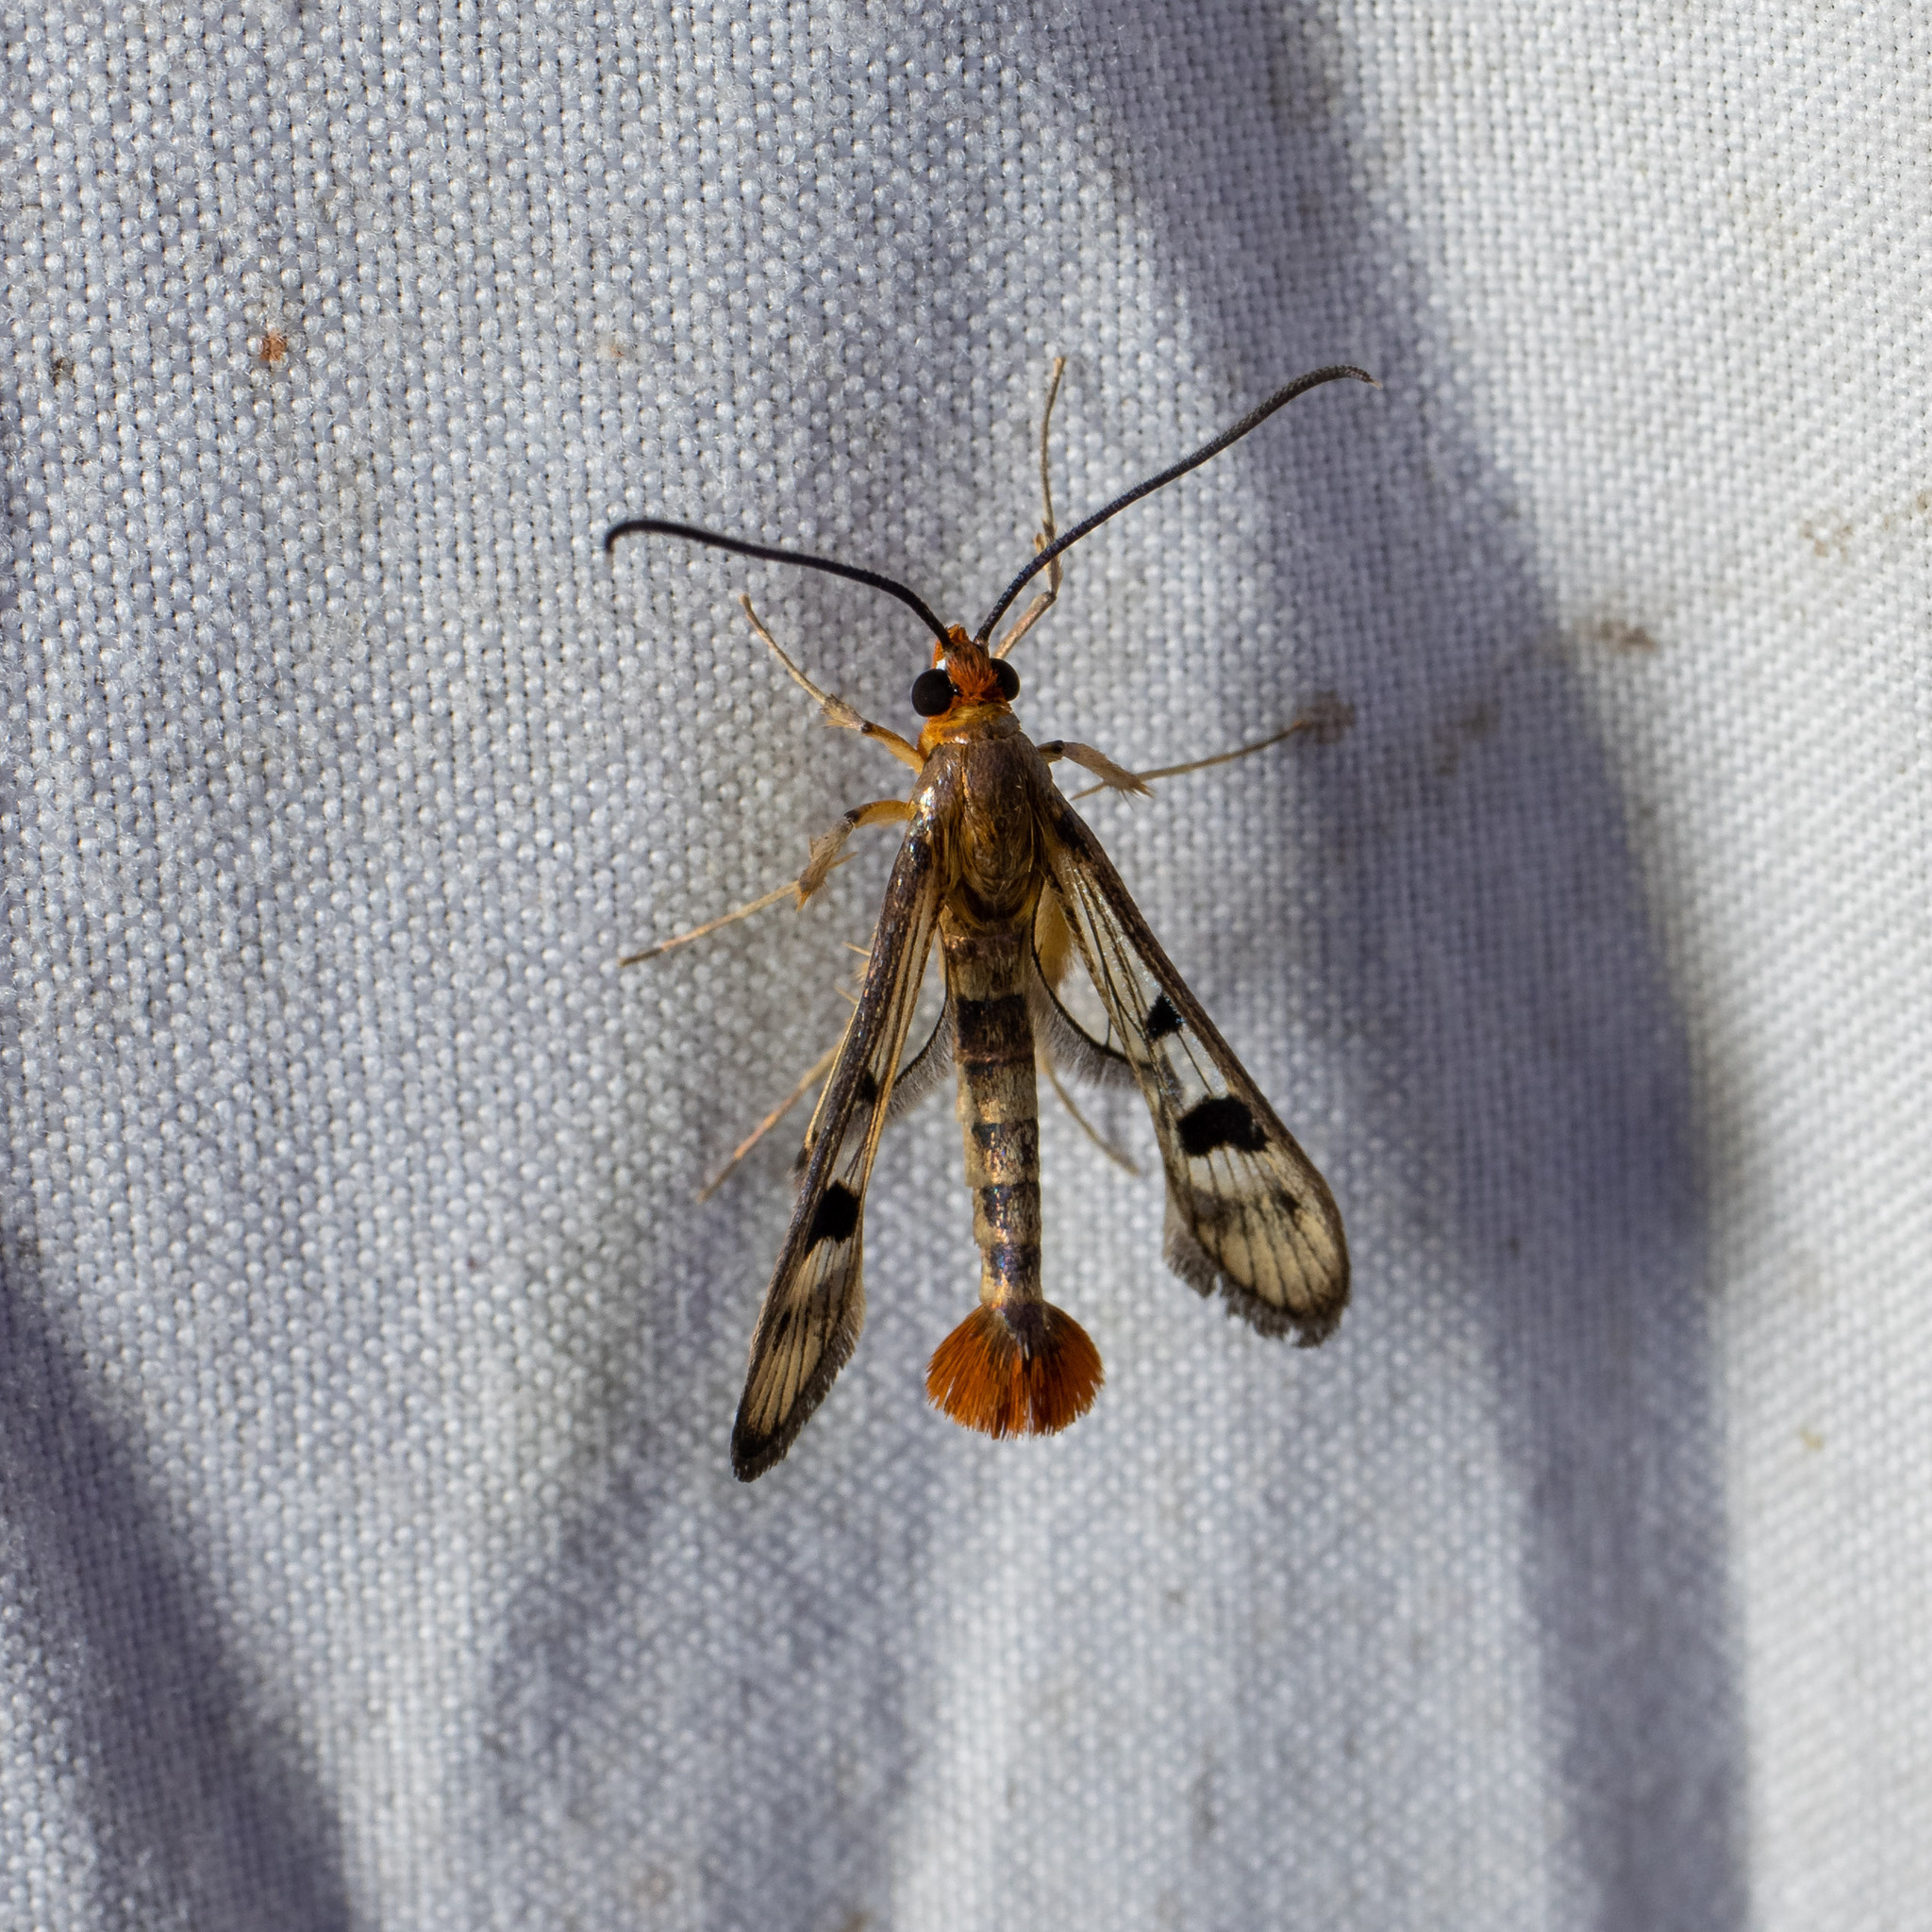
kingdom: Animalia
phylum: Arthropoda
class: Insecta
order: Lepidoptera
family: Sesiidae
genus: Synanthedon
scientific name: Synanthedon acerni
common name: Maple callus borer moth
